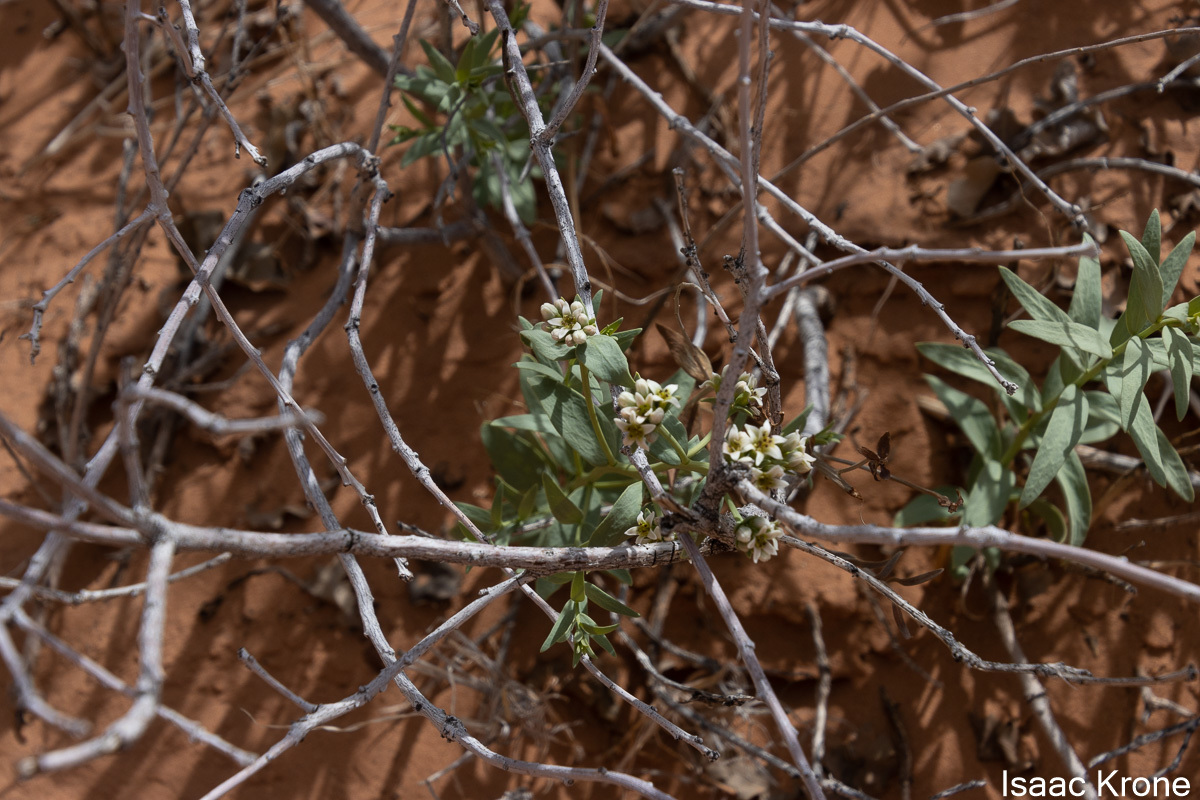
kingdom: Plantae
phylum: Tracheophyta
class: Magnoliopsida
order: Santalales
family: Comandraceae
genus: Comandra
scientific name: Comandra umbellata
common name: Bastard toadflax
